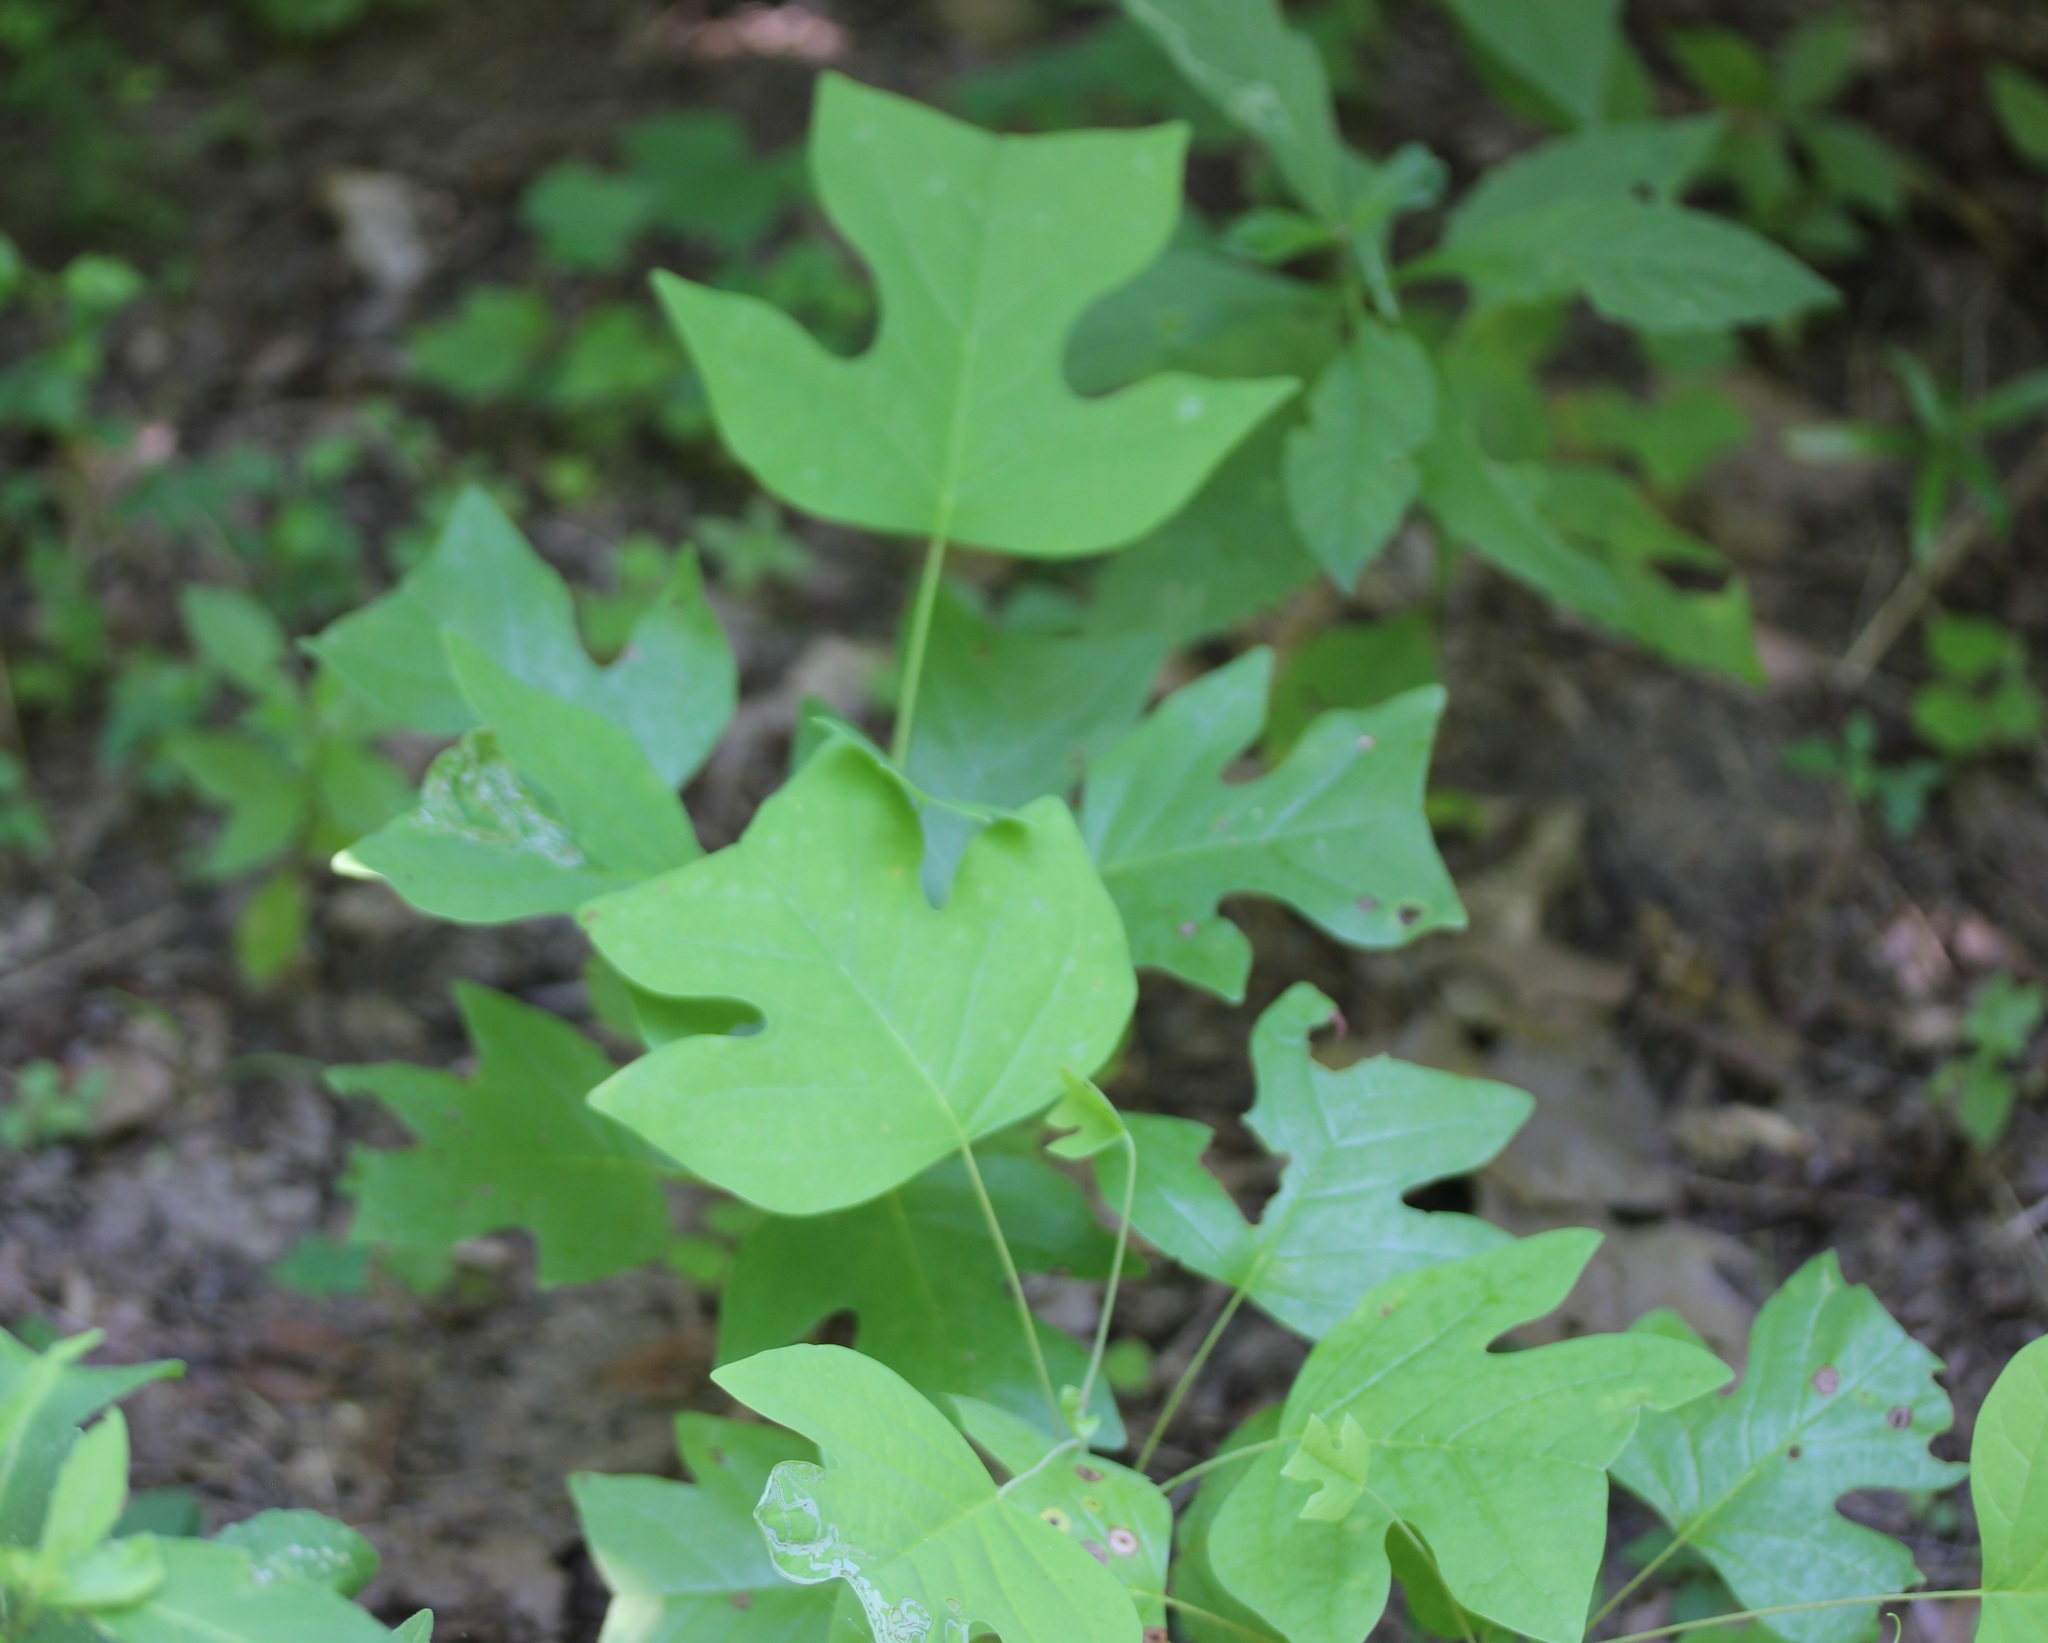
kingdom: Plantae
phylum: Tracheophyta
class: Magnoliopsida
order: Magnoliales
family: Magnoliaceae
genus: Liriodendron
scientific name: Liriodendron tulipifera
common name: Tulip tree
